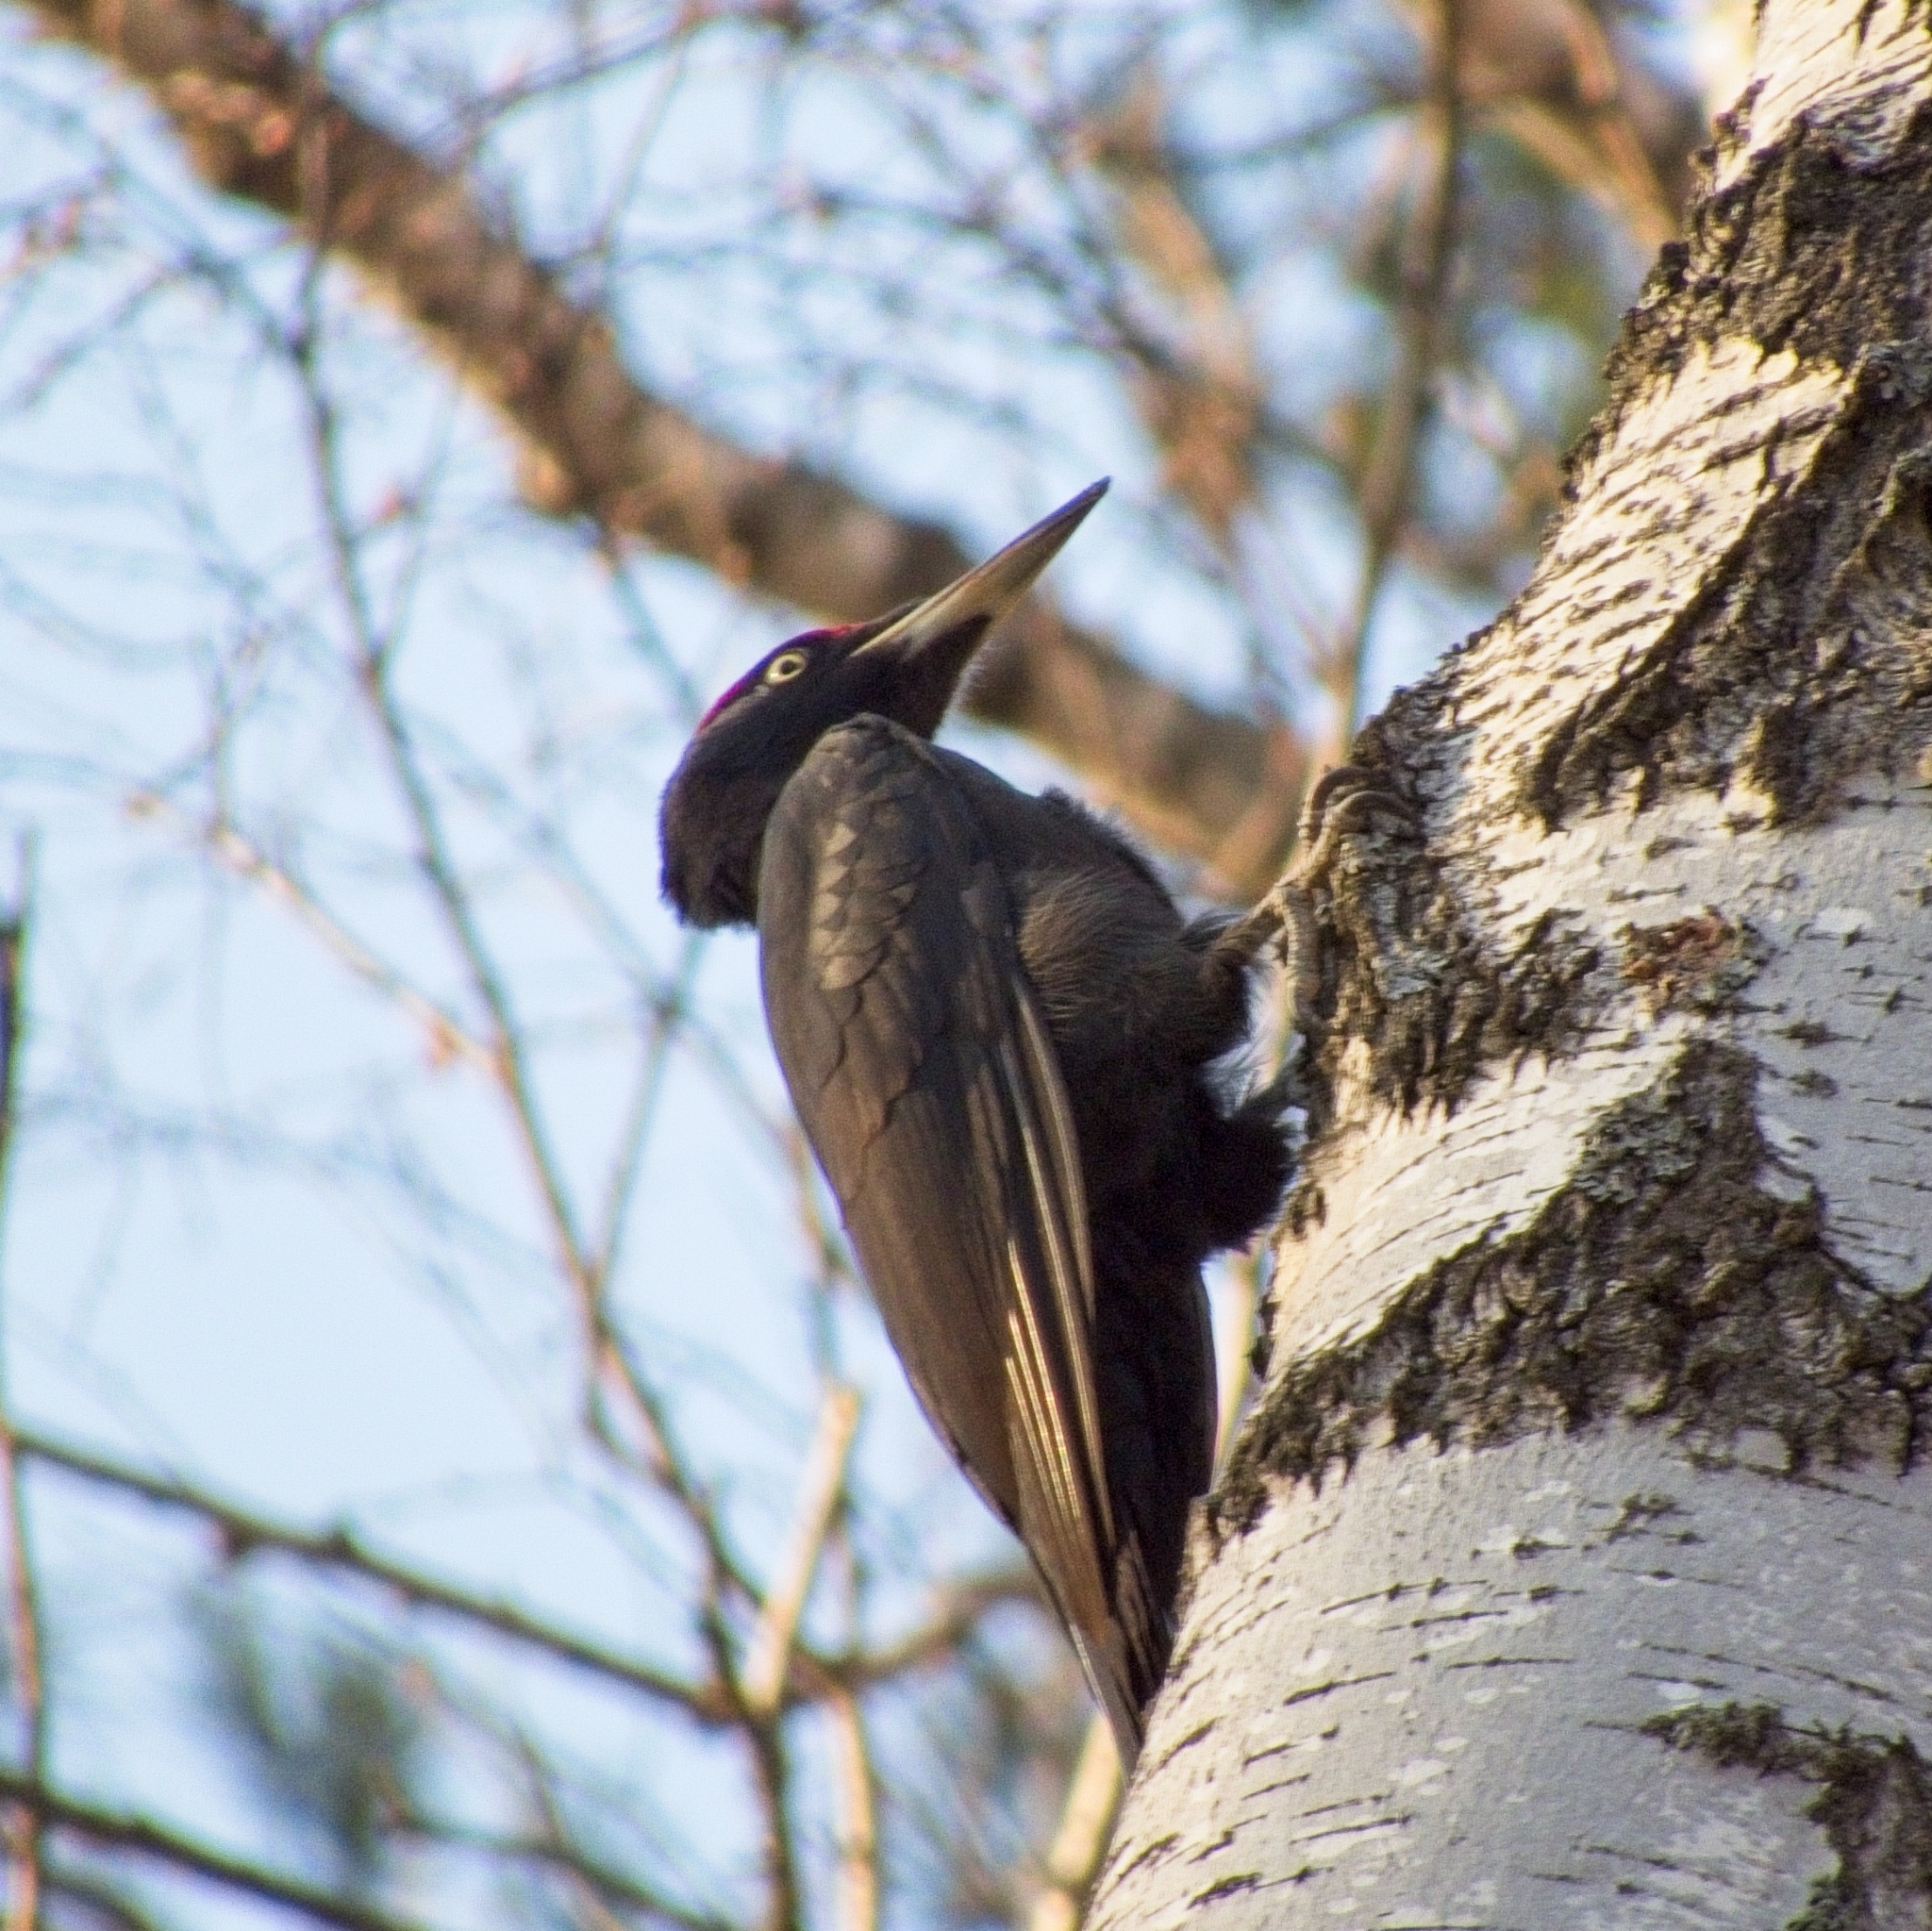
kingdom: Animalia
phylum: Chordata
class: Aves
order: Piciformes
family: Picidae
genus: Dryocopus
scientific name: Dryocopus martius
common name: Black woodpecker
